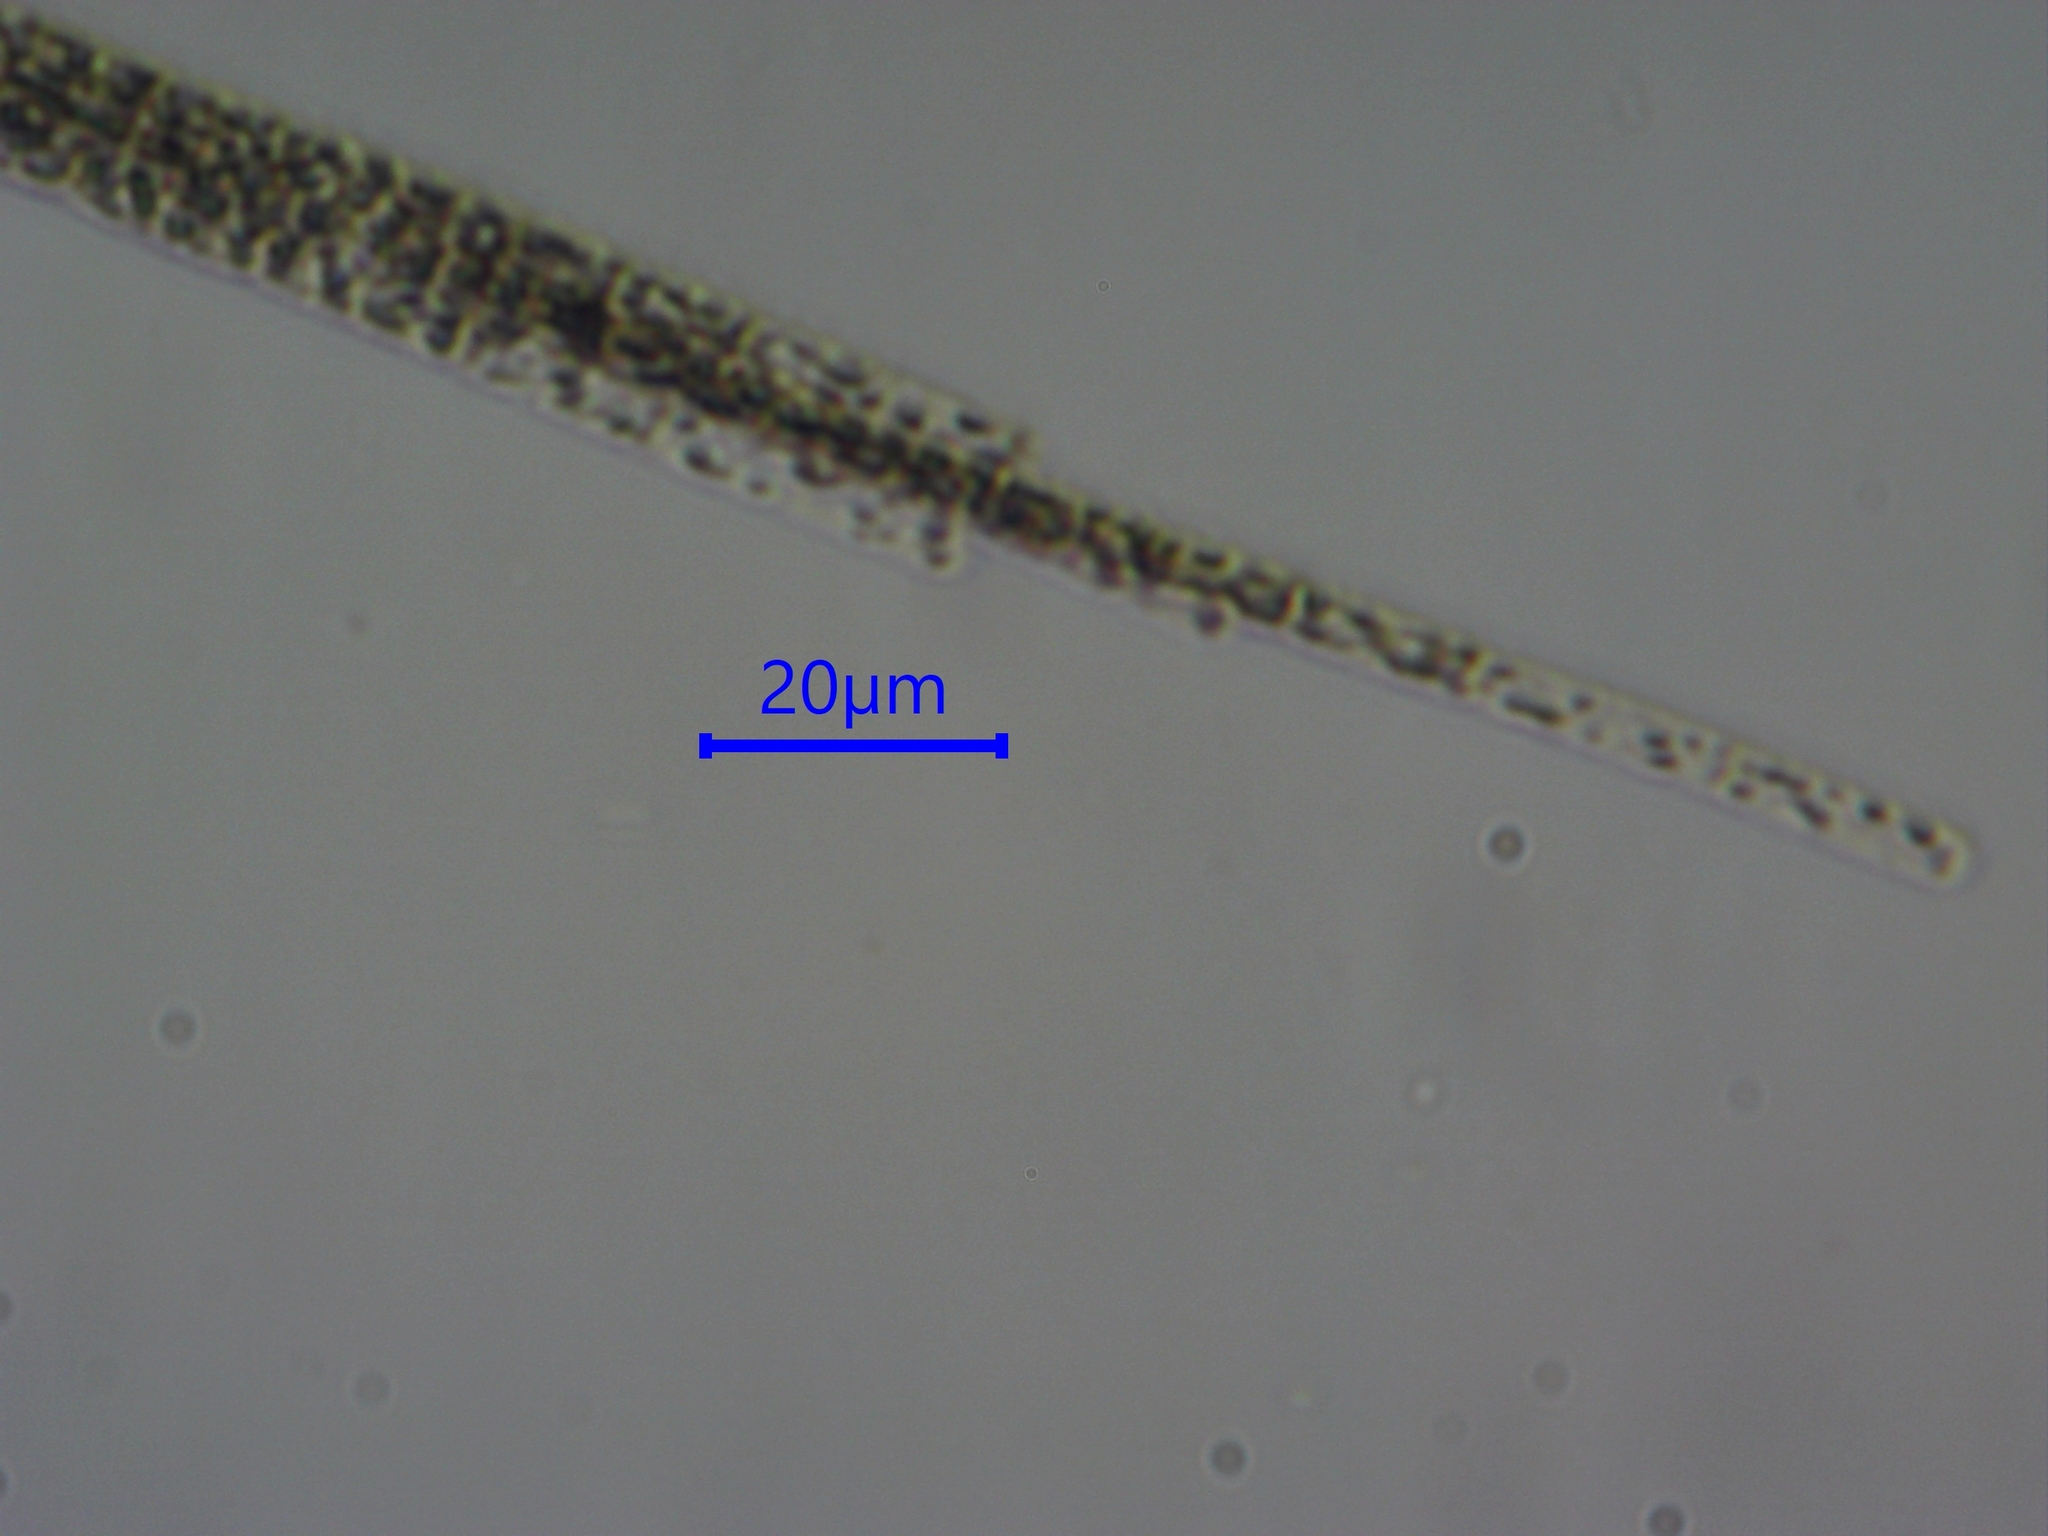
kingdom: Bacteria
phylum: Cyanobacteria
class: Cyanobacteriia
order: Cyanobacteriales
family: Aphanizomenonaceae
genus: Aphanizomenon
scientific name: Aphanizomenon flosaquae
